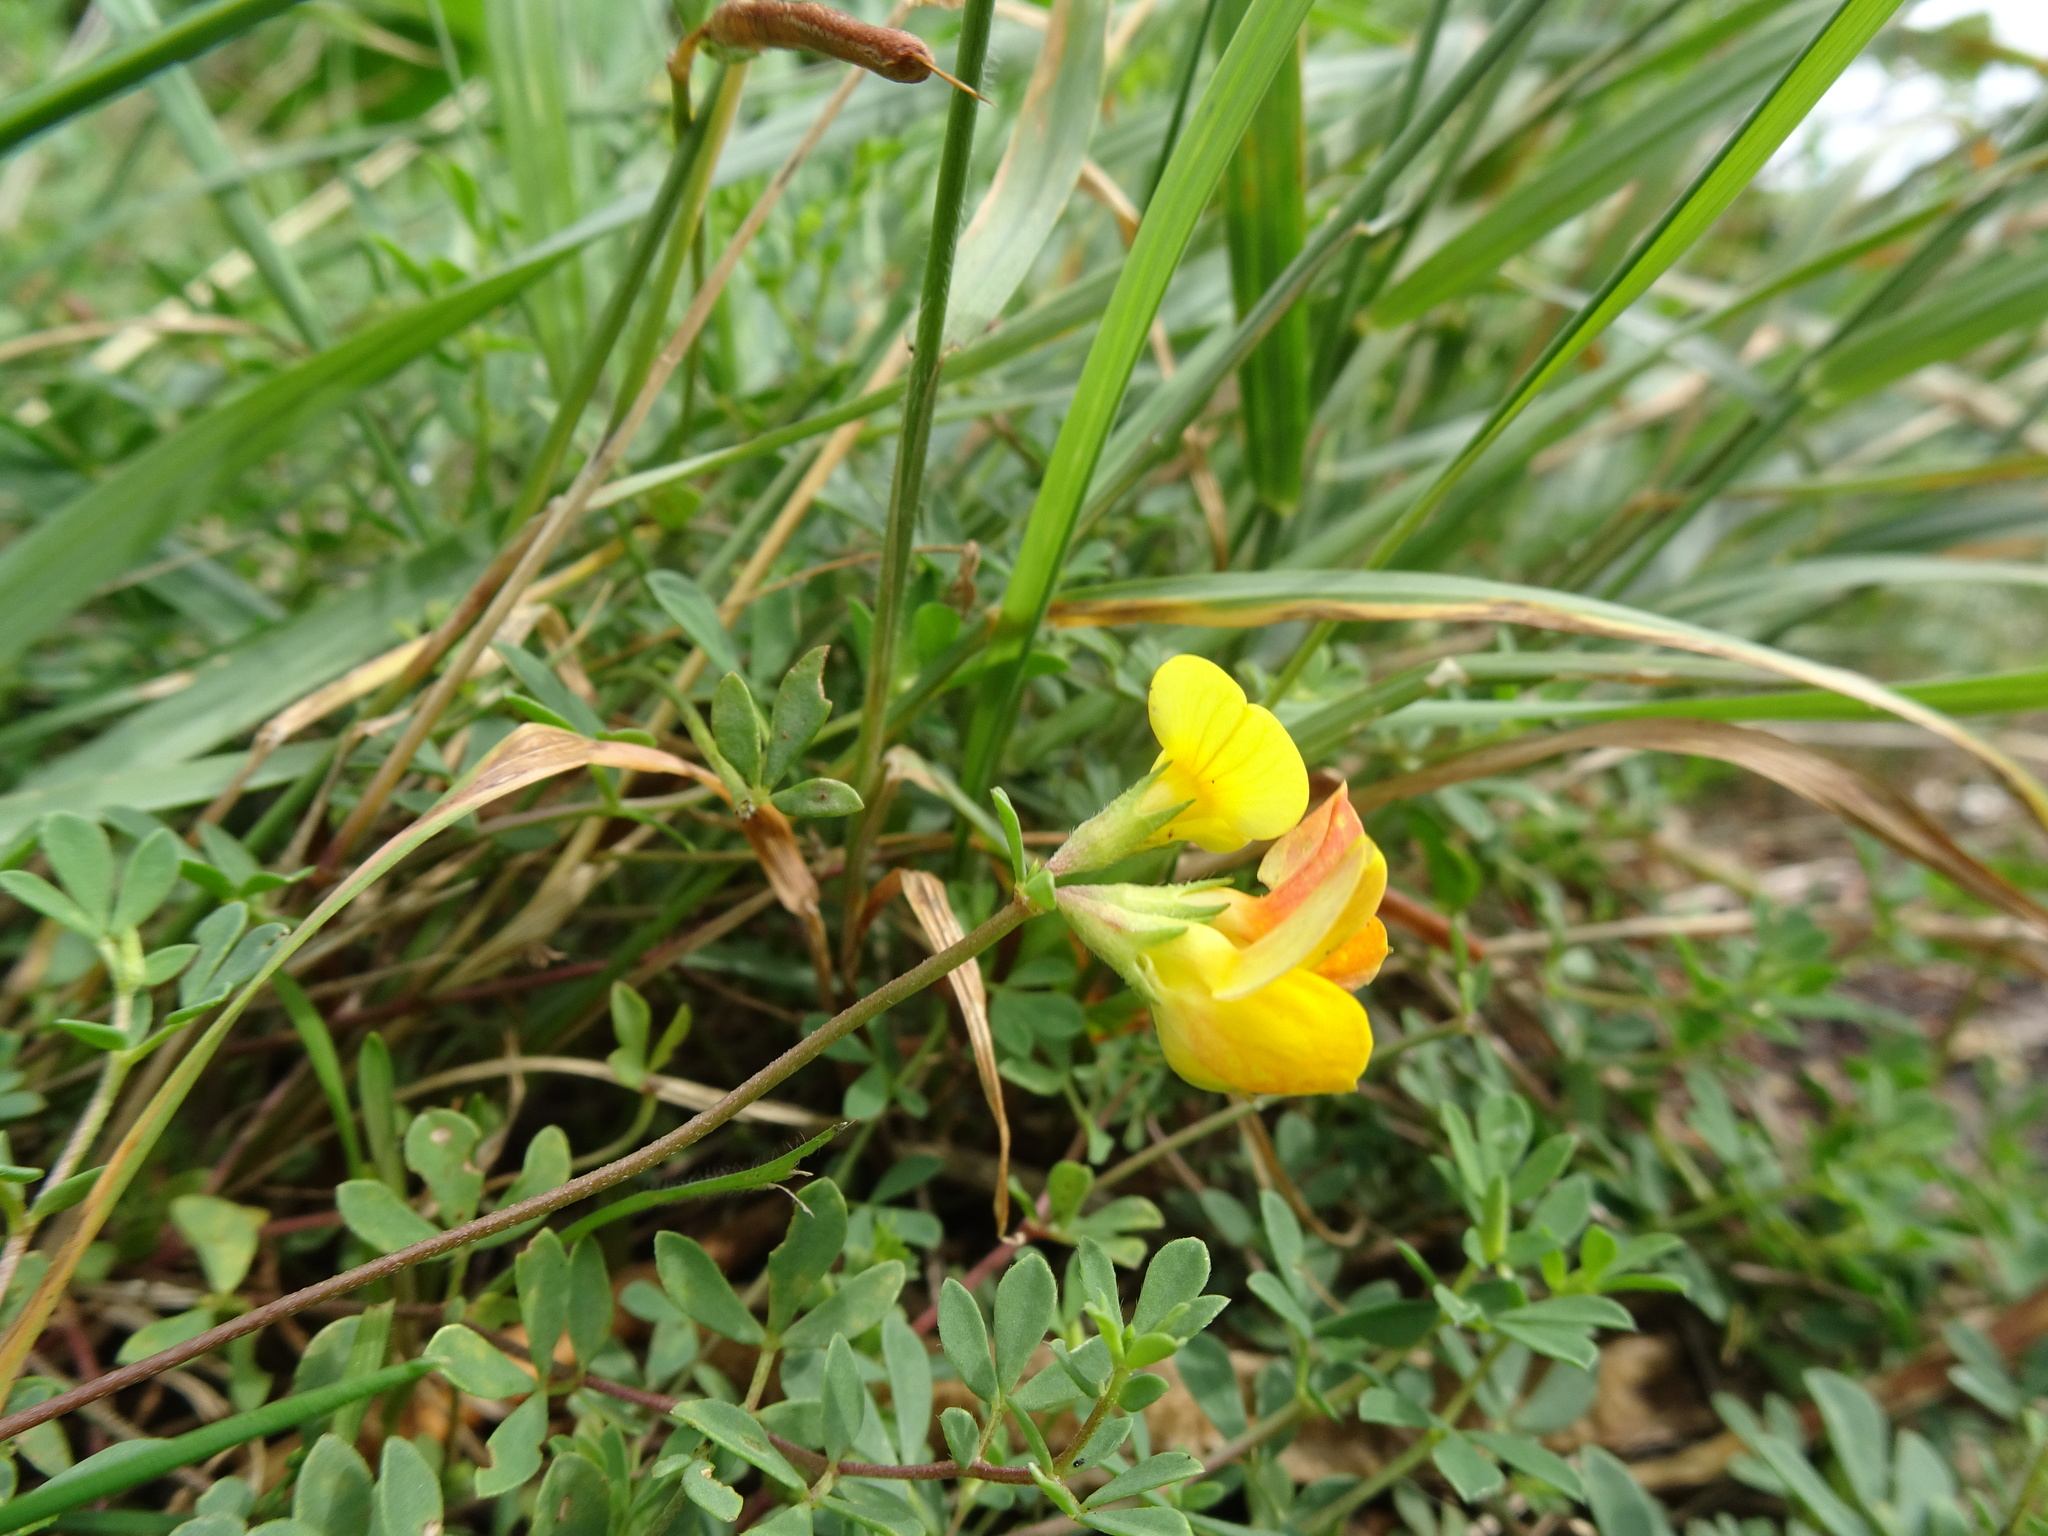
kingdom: Plantae
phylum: Tracheophyta
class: Magnoliopsida
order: Fabales
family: Fabaceae
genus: Lotus
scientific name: Lotus corniculatus
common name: Common bird's-foot-trefoil
